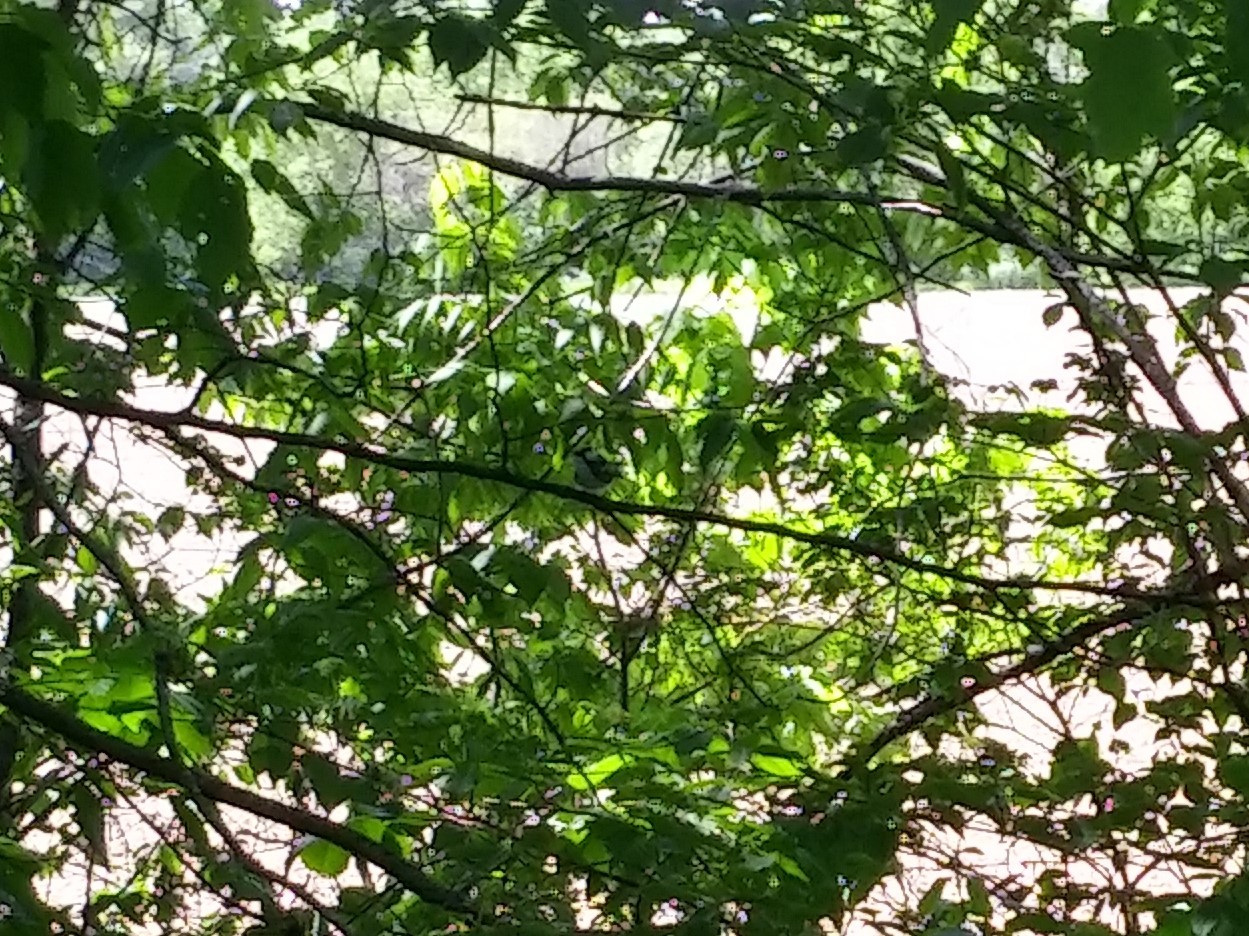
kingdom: Animalia
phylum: Chordata
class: Aves
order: Passeriformes
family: Parulidae
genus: Setophaga
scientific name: Setophaga pensylvanica
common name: Chestnut-sided warbler
